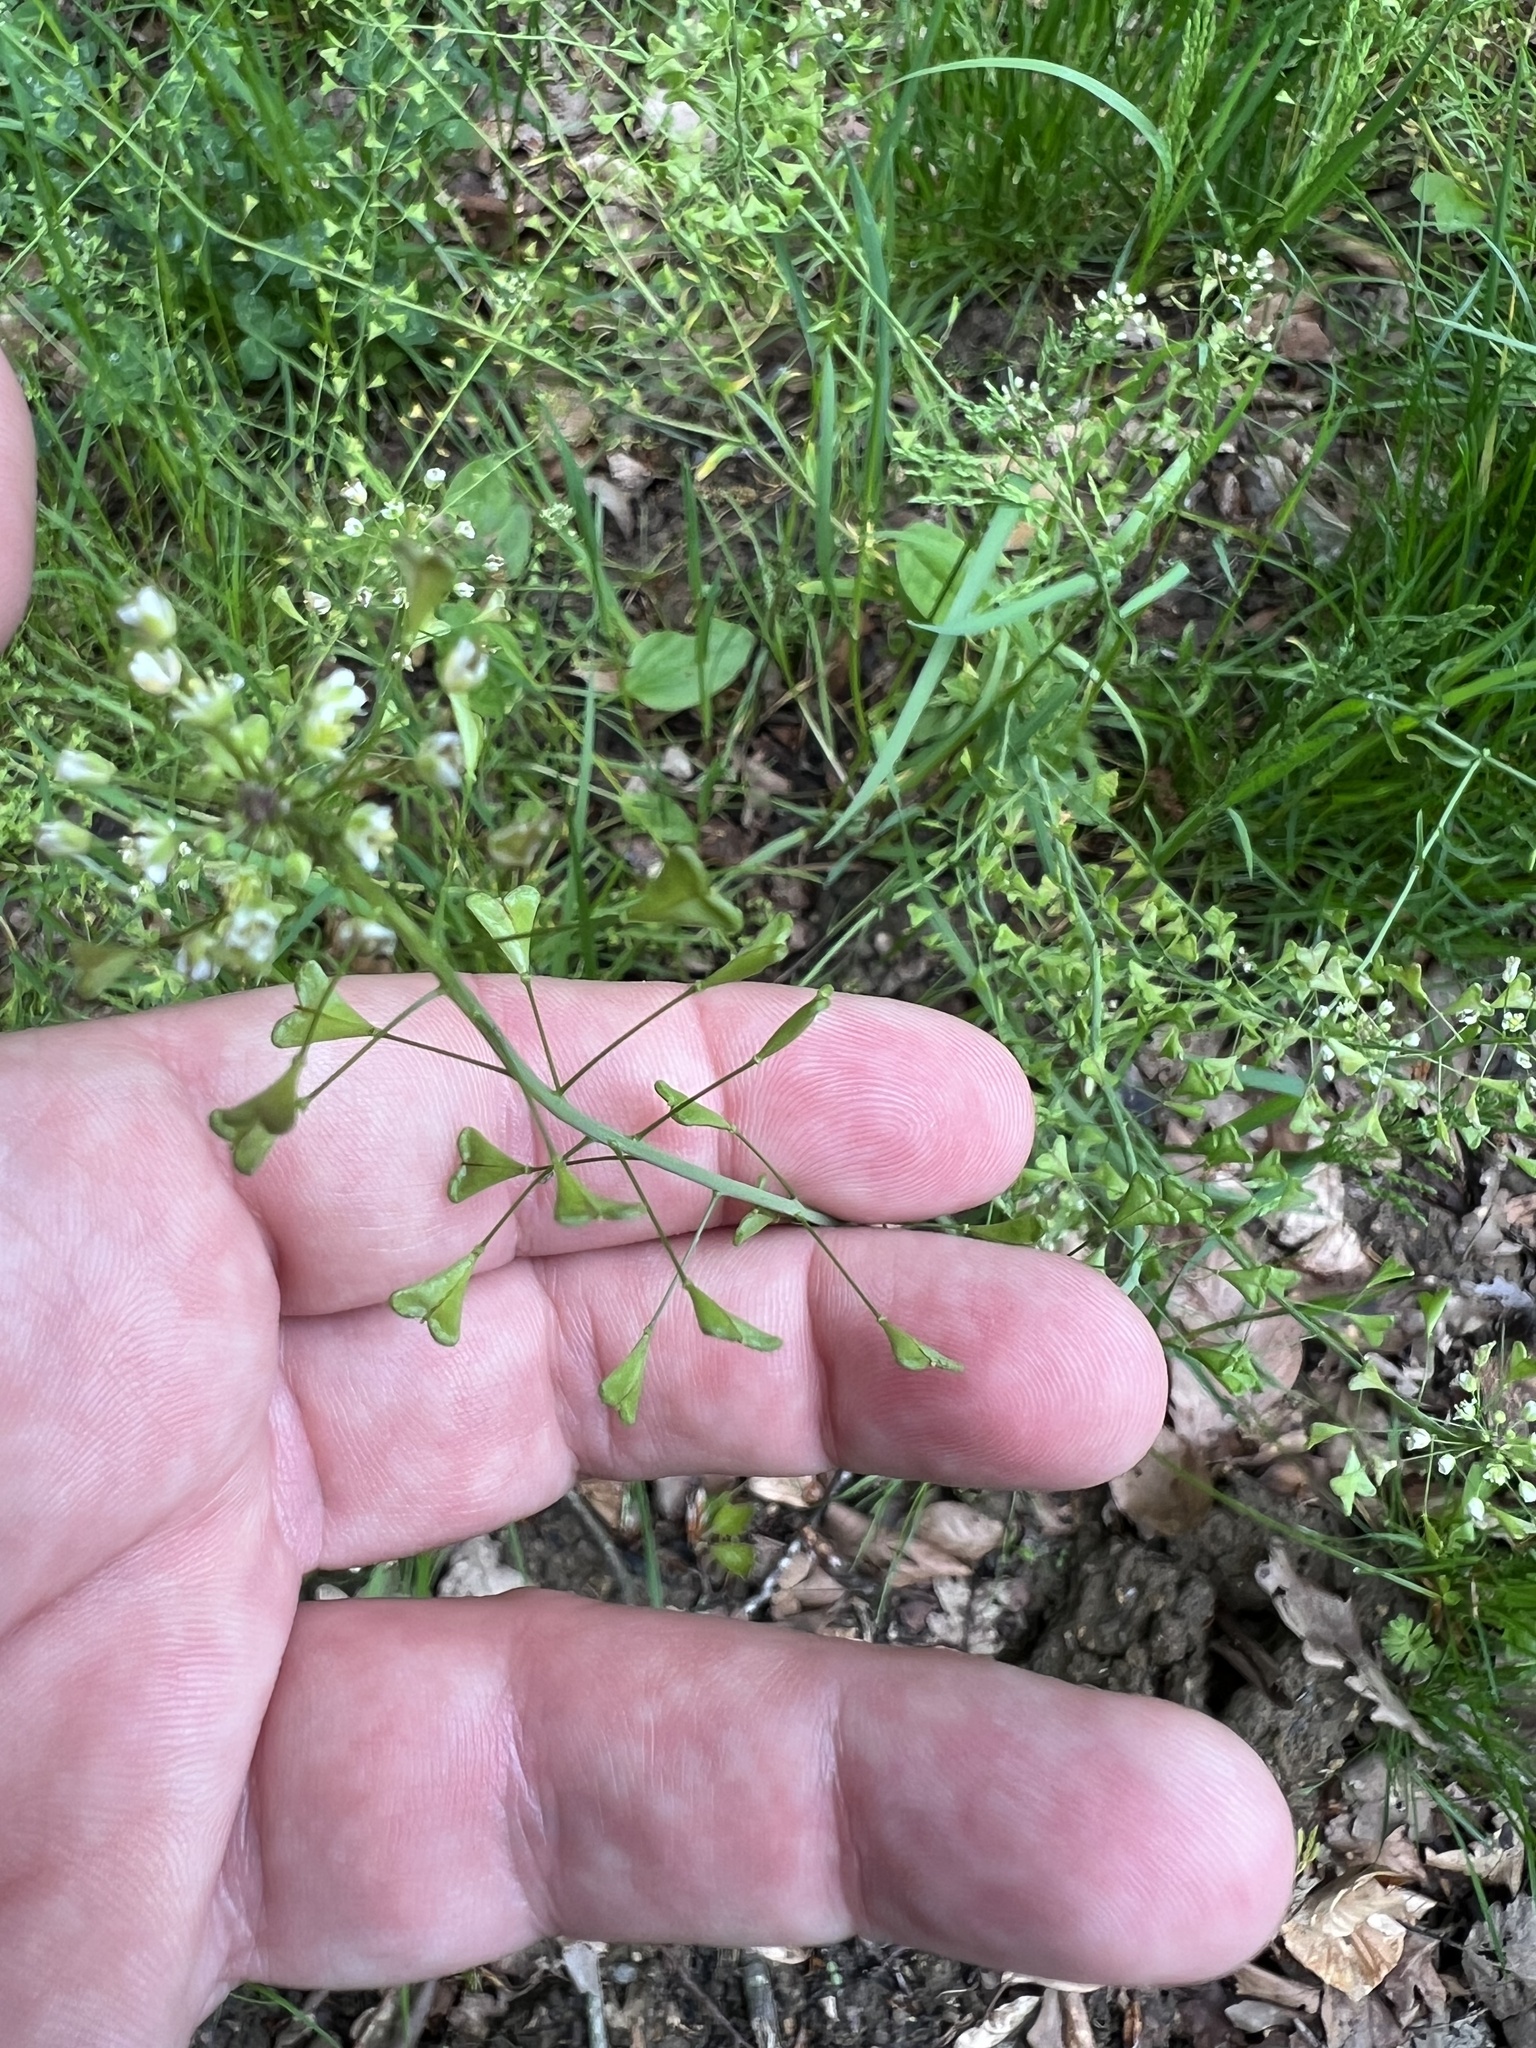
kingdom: Plantae
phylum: Tracheophyta
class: Magnoliopsida
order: Brassicales
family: Brassicaceae
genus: Capsella
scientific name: Capsella bursa-pastoris
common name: Shepherd's purse
